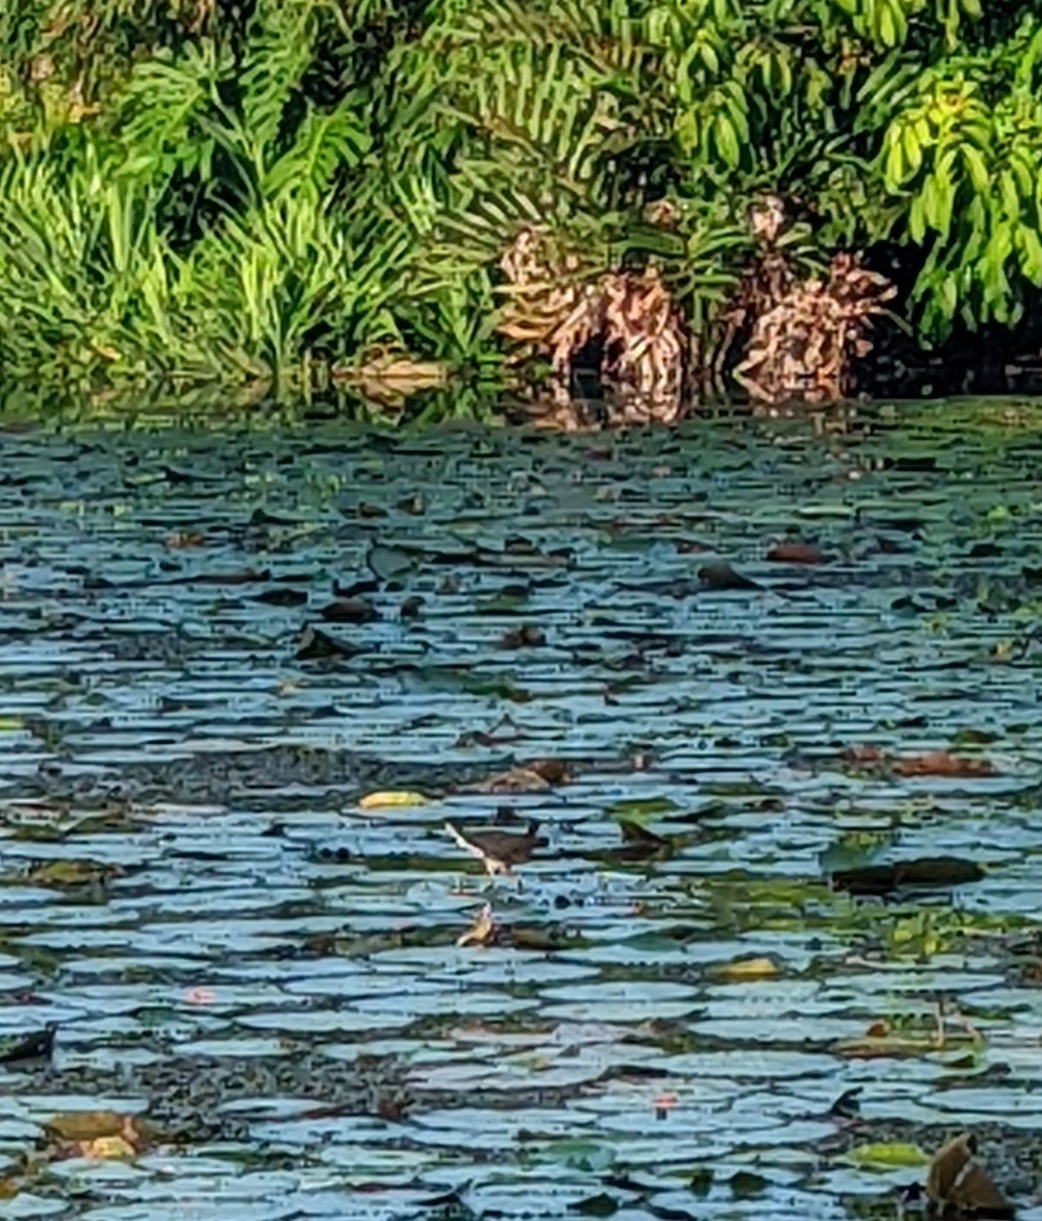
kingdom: Animalia
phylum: Chordata
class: Aves
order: Gruiformes
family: Rallidae
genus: Amaurornis
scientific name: Amaurornis phoenicurus
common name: White-breasted waterhen
